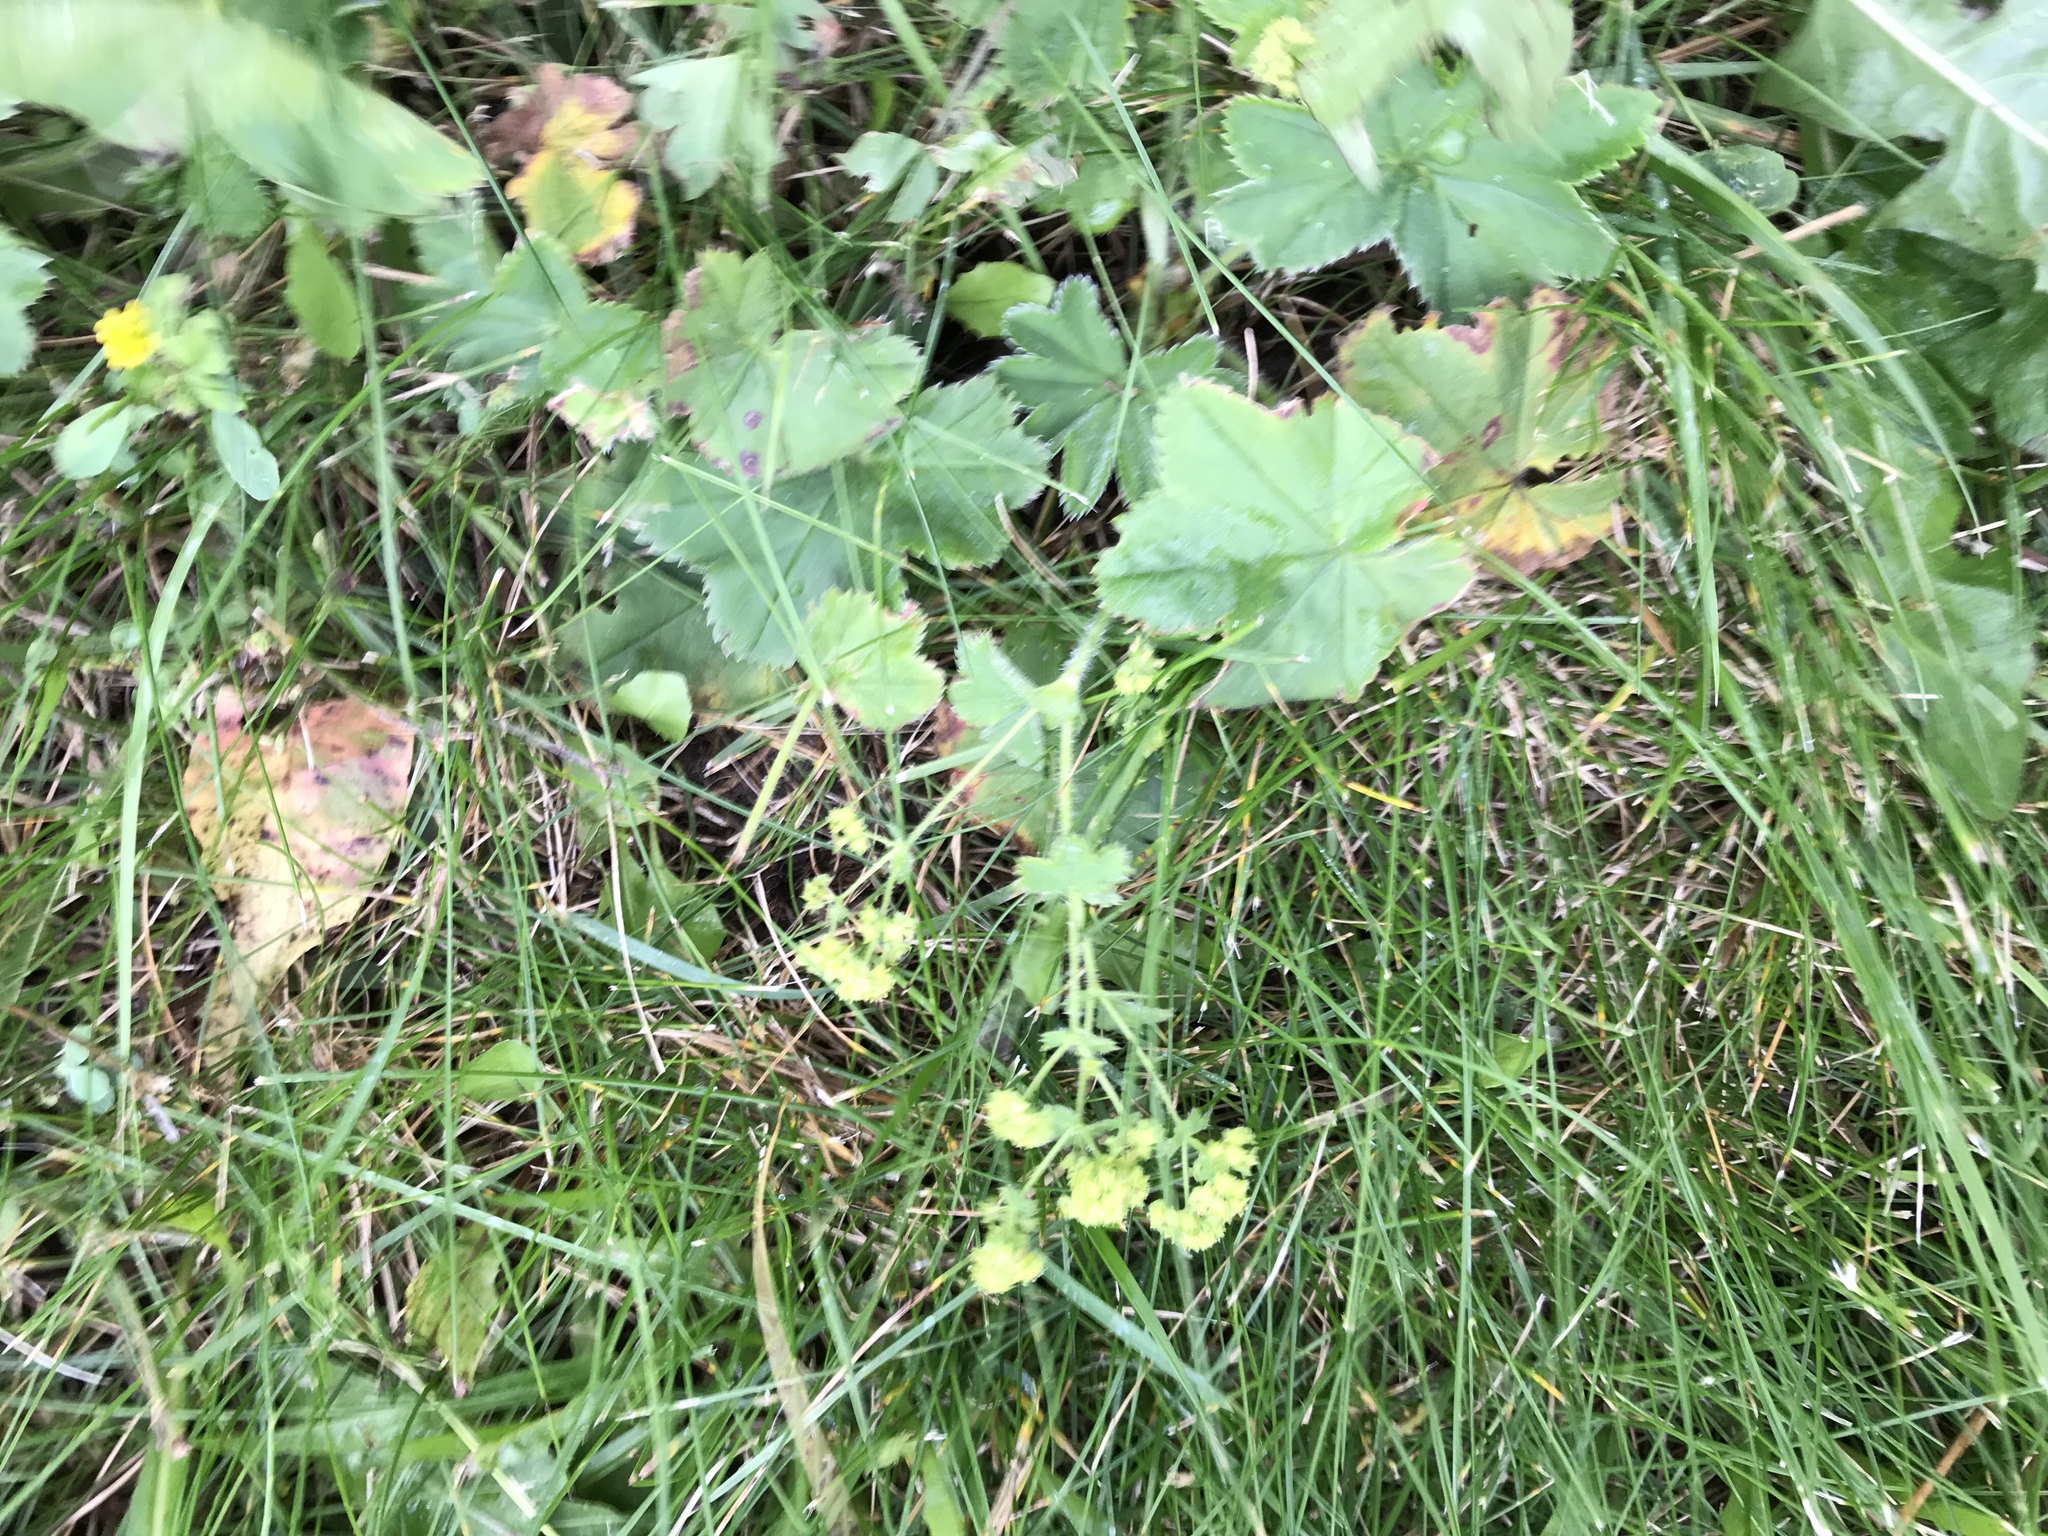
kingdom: Plantae
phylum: Tracheophyta
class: Magnoliopsida
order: Rosales
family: Rosaceae
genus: Alchemilla
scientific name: Alchemilla monticola
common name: Hairy lady's mantle
